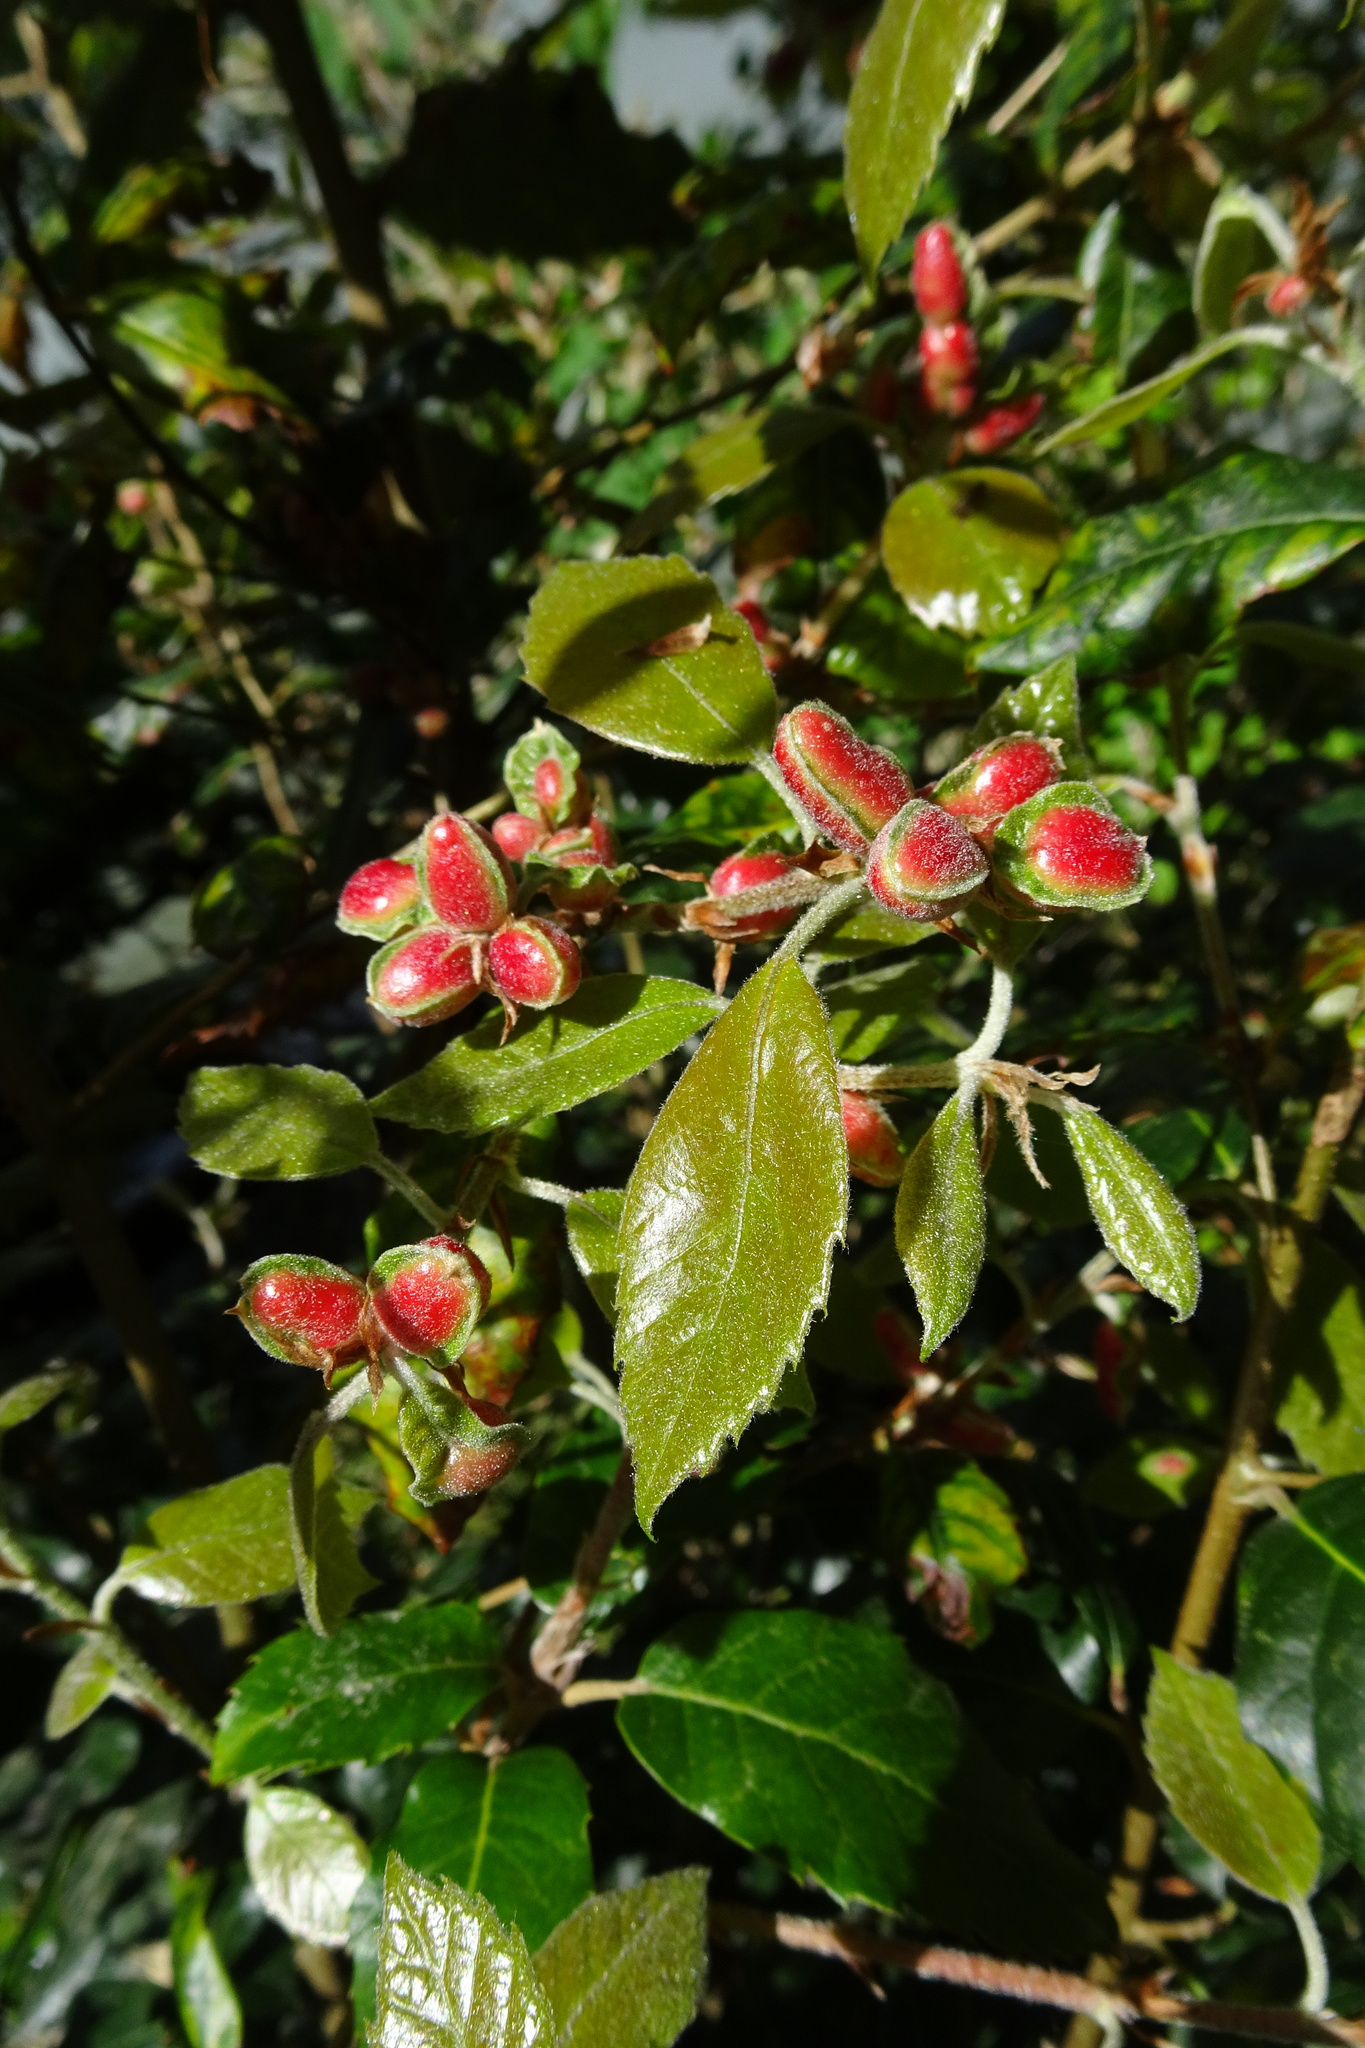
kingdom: Animalia
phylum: Arthropoda
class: Insecta
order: Hymenoptera
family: Cynipidae
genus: Plagiotrochus
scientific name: Plagiotrochus quercusilicis
